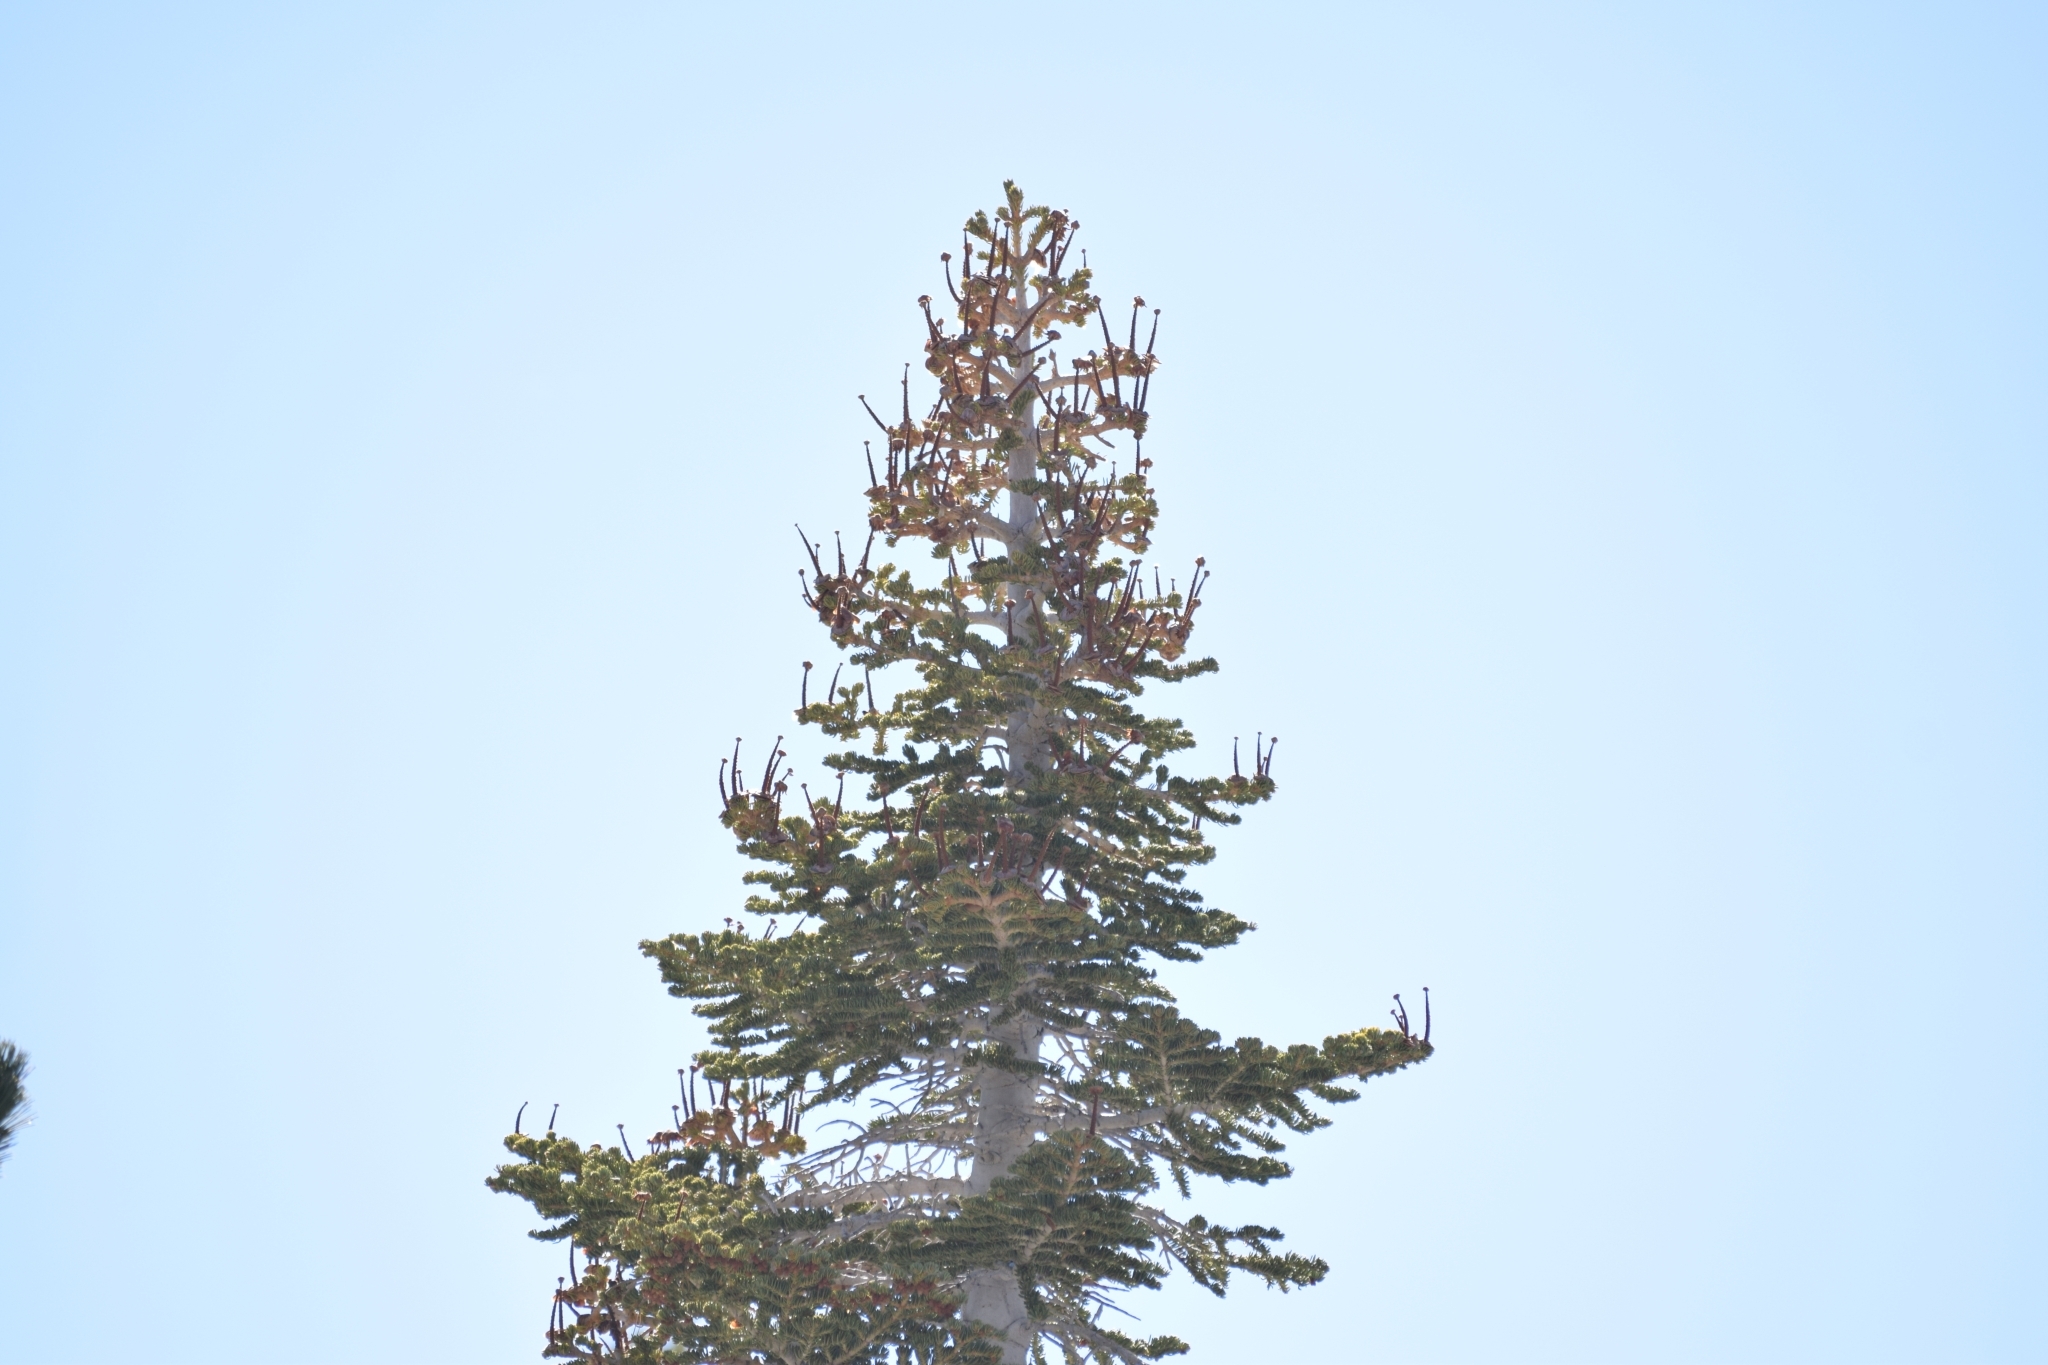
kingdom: Plantae
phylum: Tracheophyta
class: Pinopsida
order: Pinales
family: Pinaceae
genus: Abies
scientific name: Abies concolor
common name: Colorado fir
